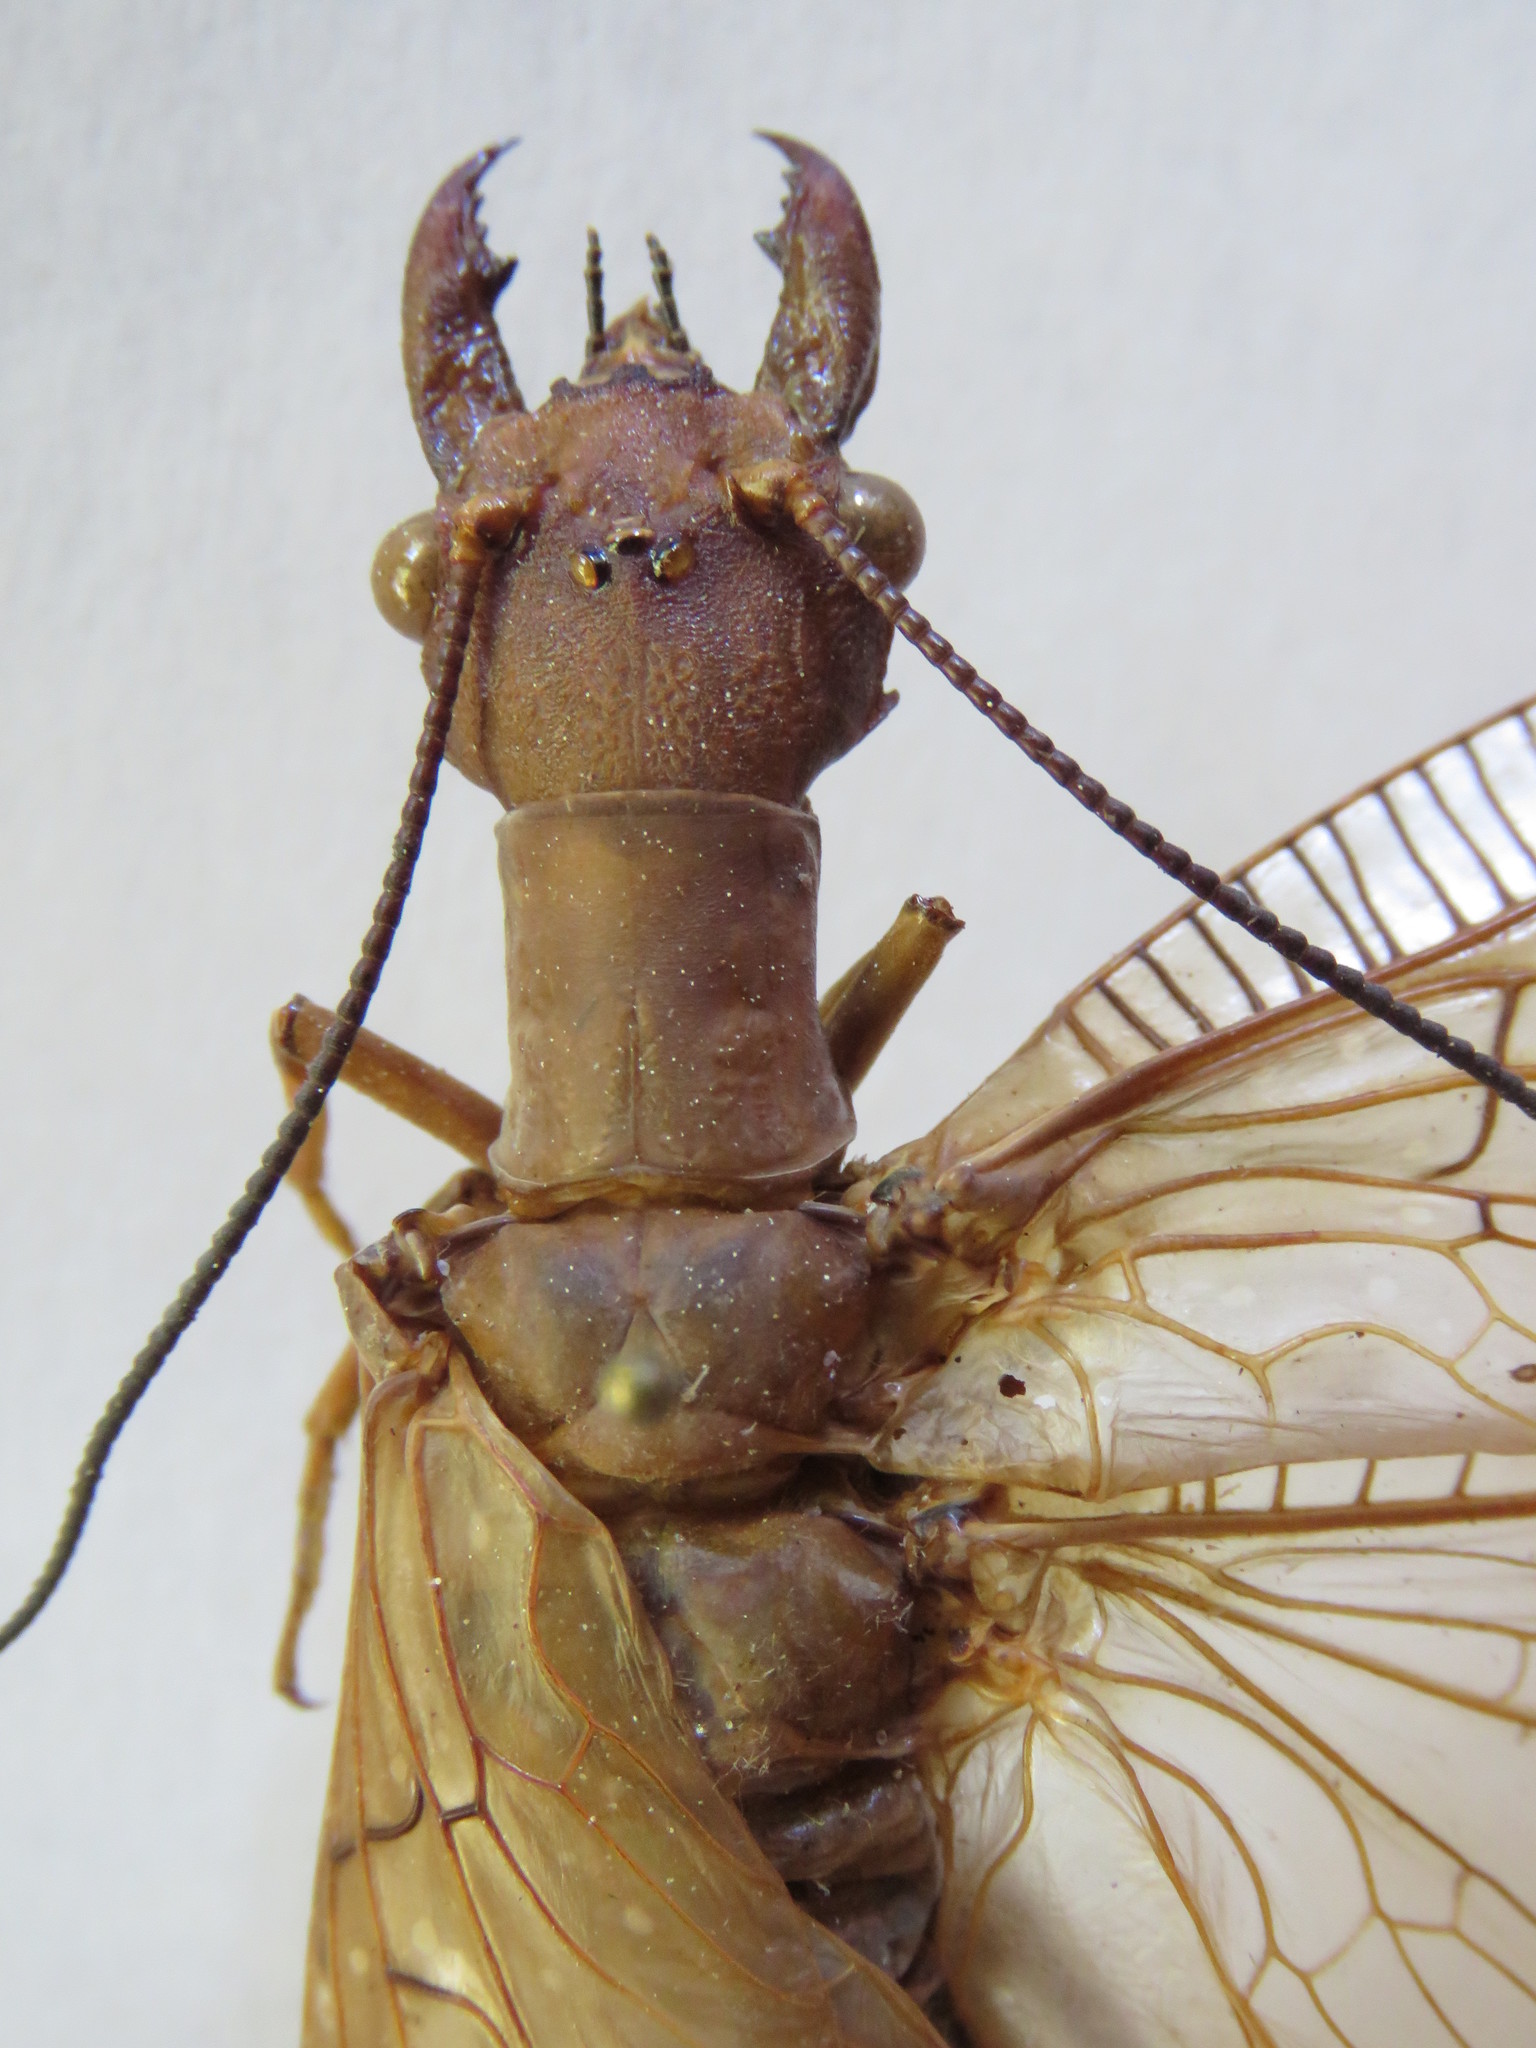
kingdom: Animalia
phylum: Arthropoda
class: Insecta
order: Megaloptera
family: Corydalidae
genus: Corydalus
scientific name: Corydalus peruvianus
